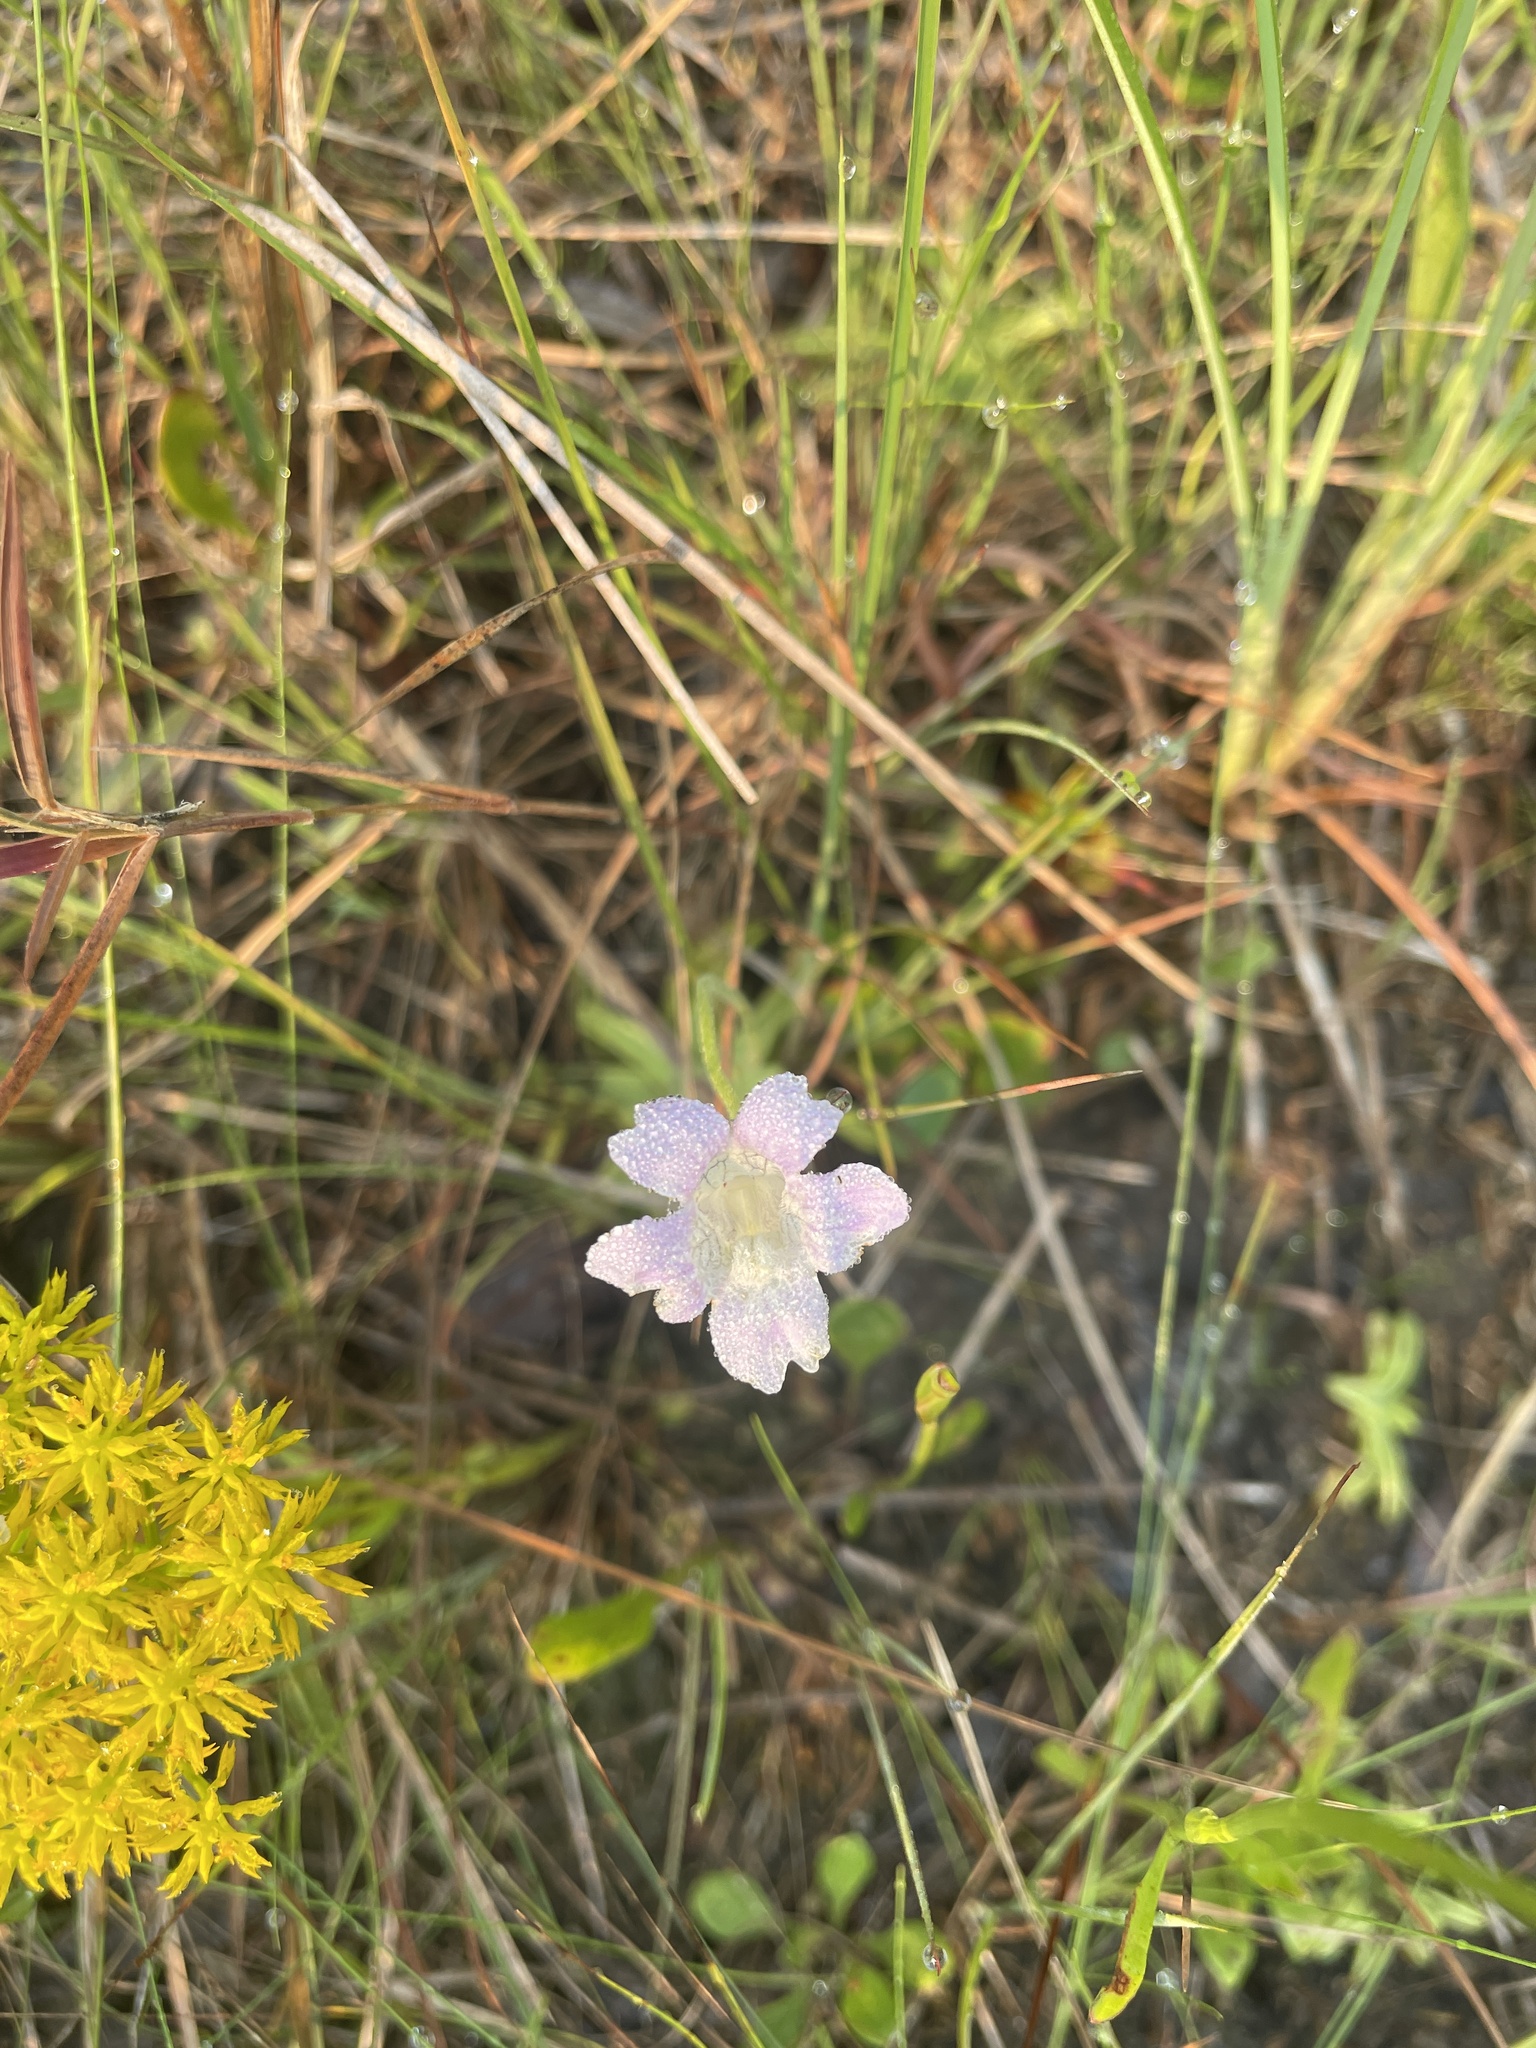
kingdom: Plantae
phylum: Tracheophyta
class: Magnoliopsida
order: Lamiales
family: Lentibulariaceae
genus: Pinguicula
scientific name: Pinguicula caerulea
